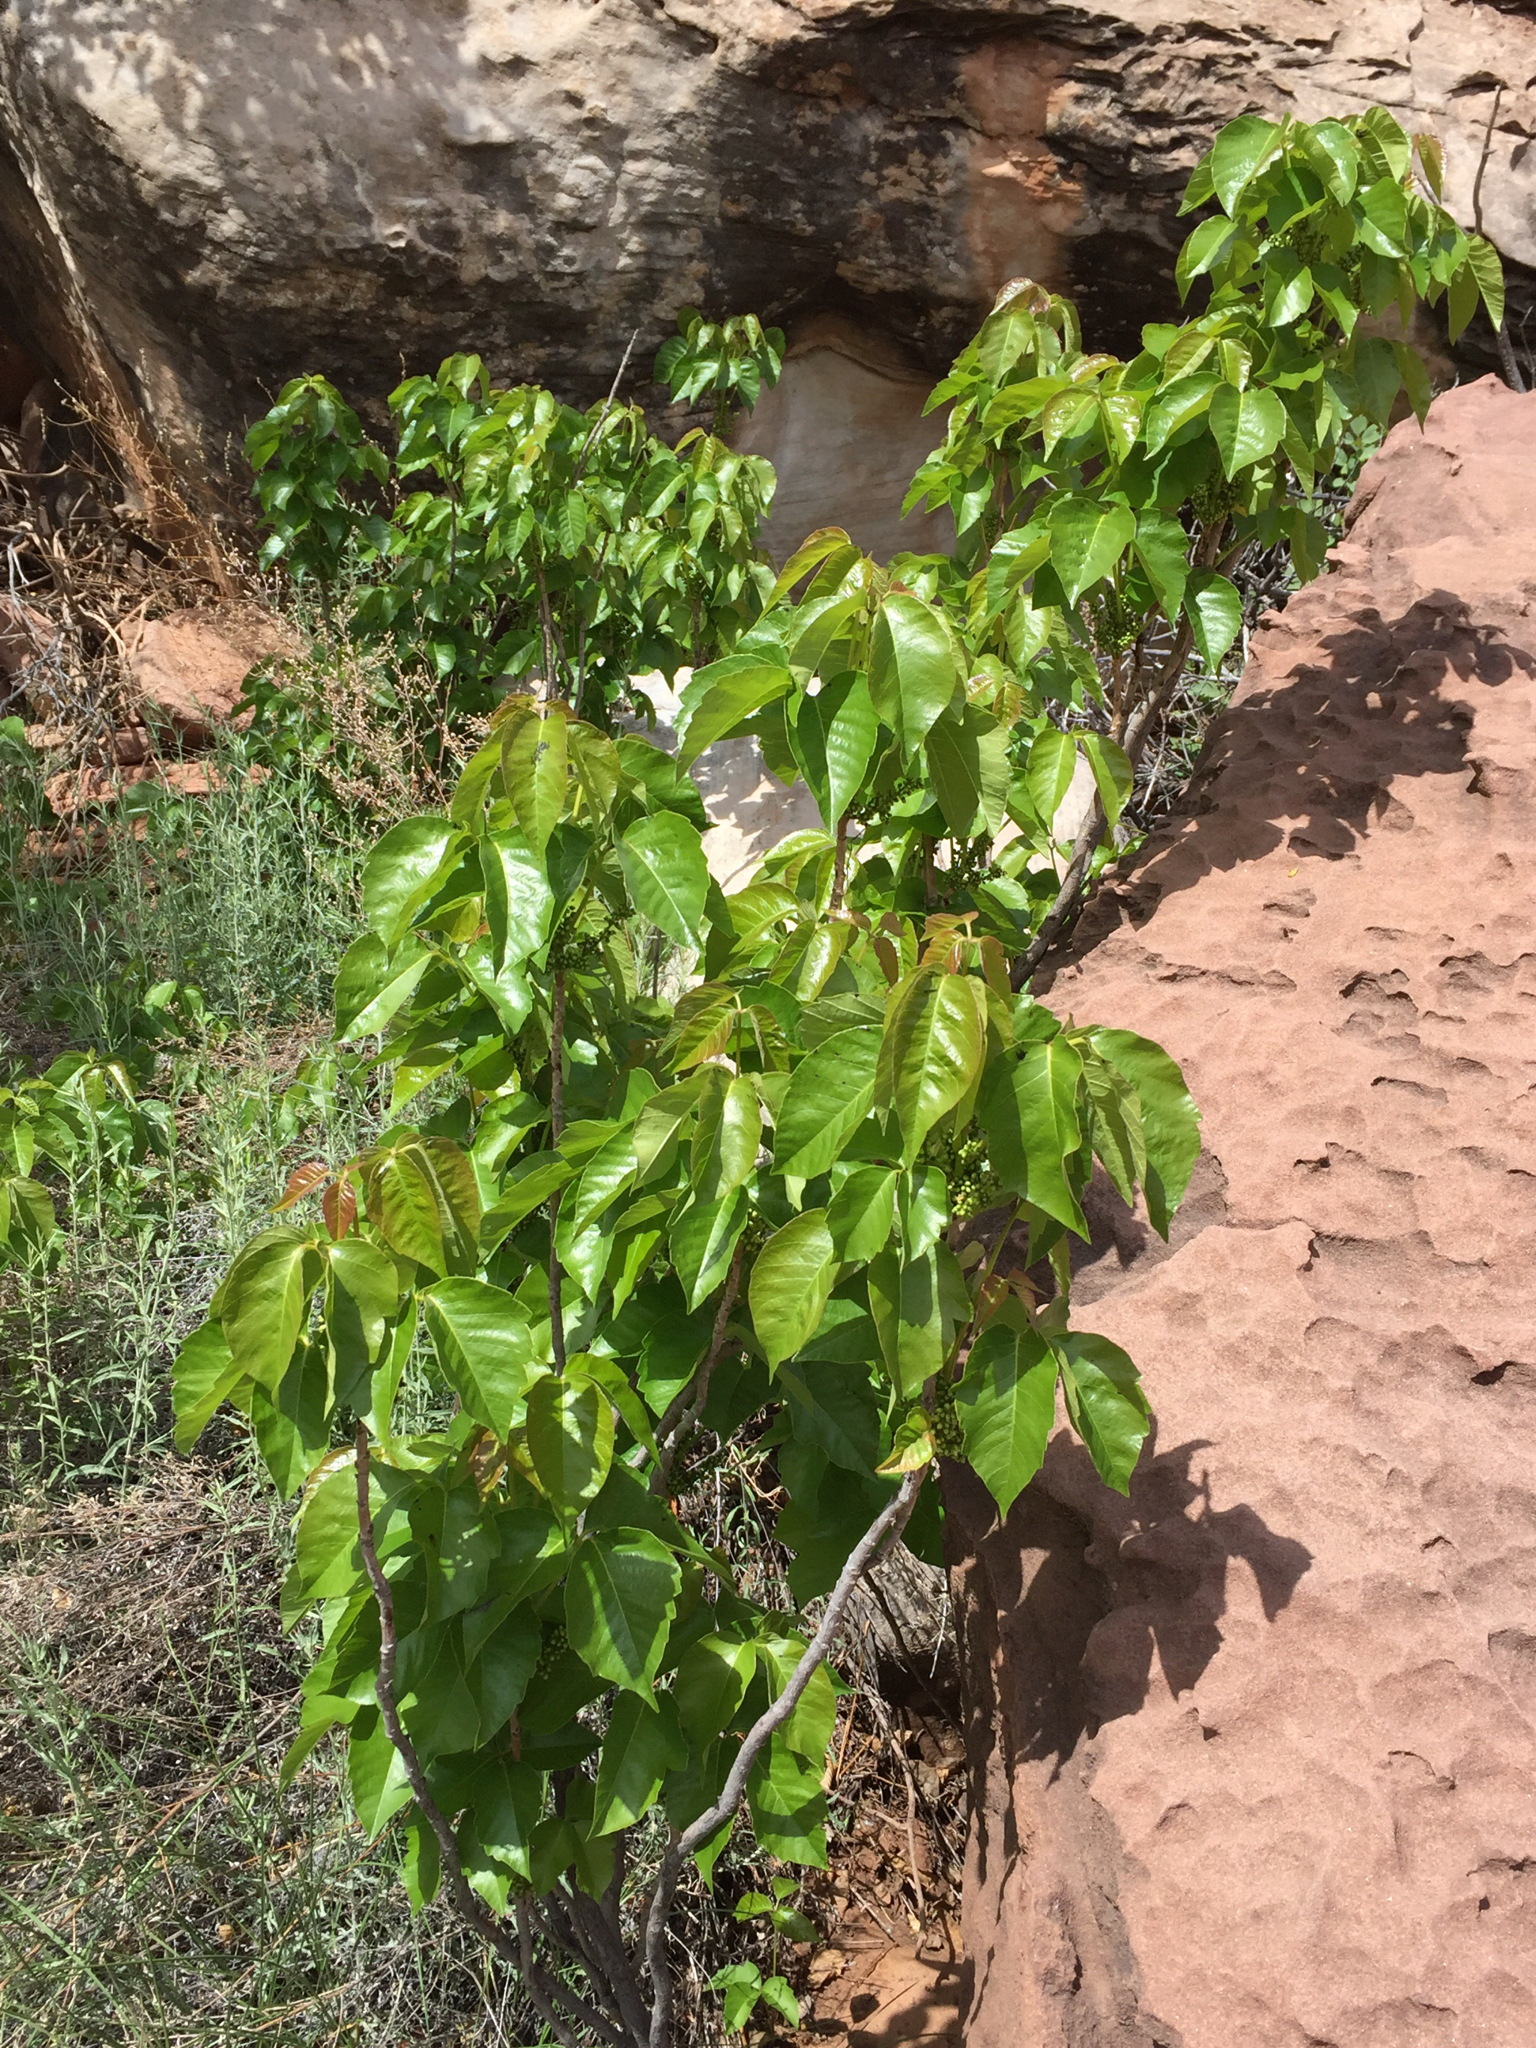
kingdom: Plantae
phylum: Tracheophyta
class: Magnoliopsida
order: Sapindales
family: Anacardiaceae
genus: Toxicodendron
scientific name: Toxicodendron rydbergii
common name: Rydberg's poison-ivy
